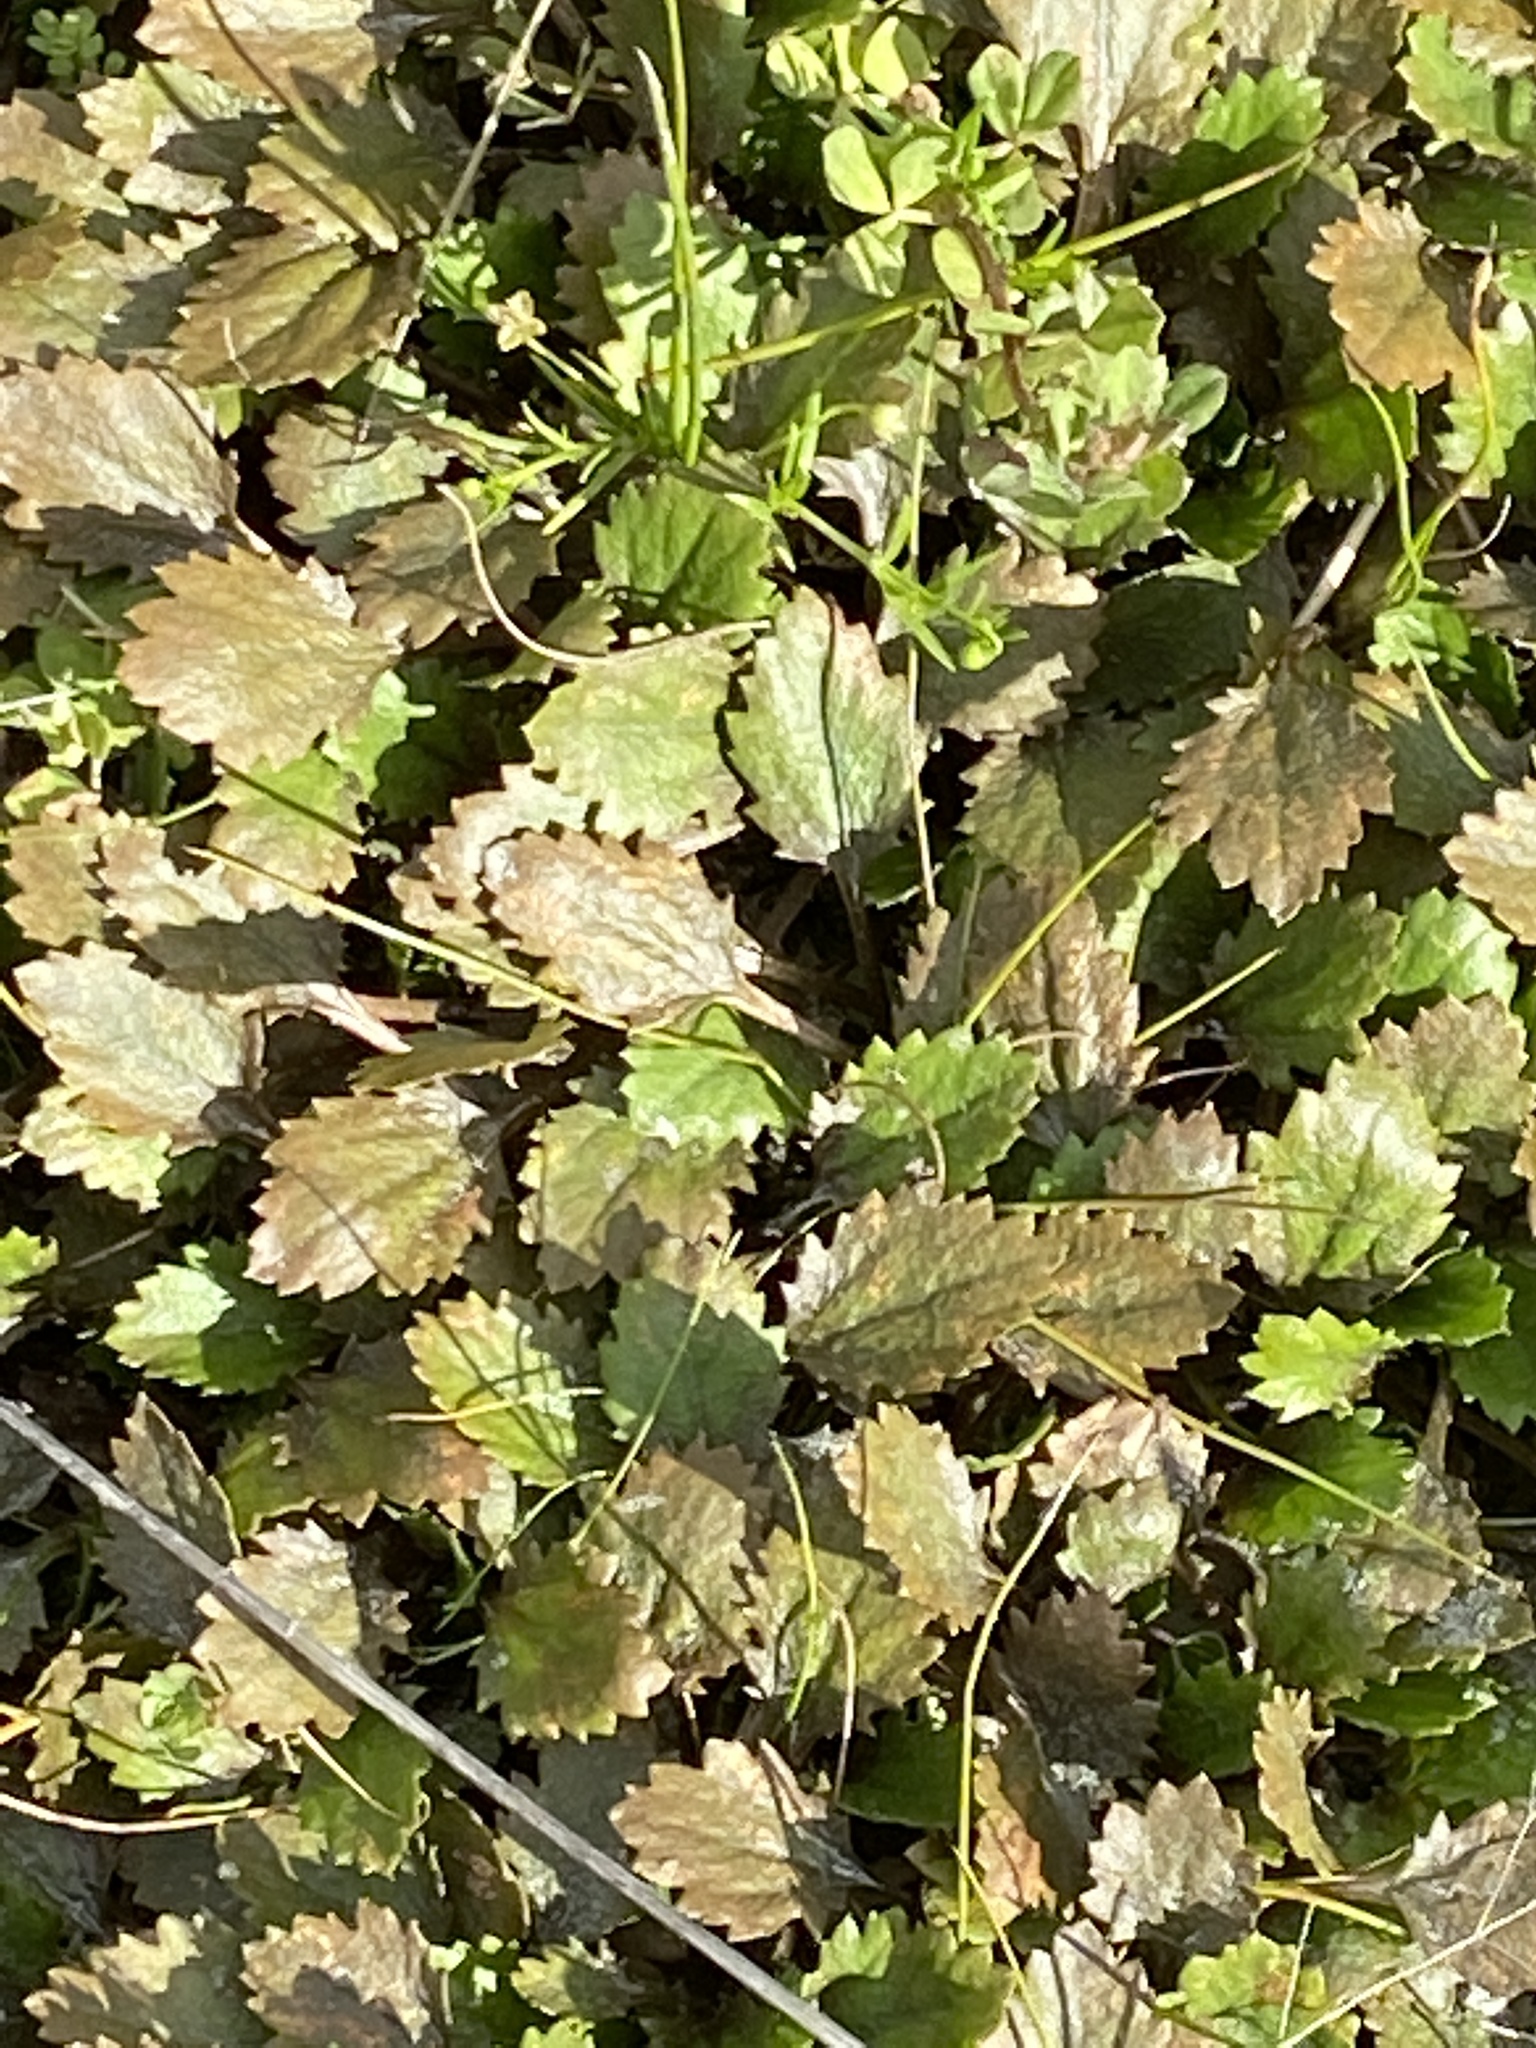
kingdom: Plantae
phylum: Tracheophyta
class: Magnoliopsida
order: Gunnerales
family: Gunneraceae
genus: Gunnera
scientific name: Gunnera dentata
